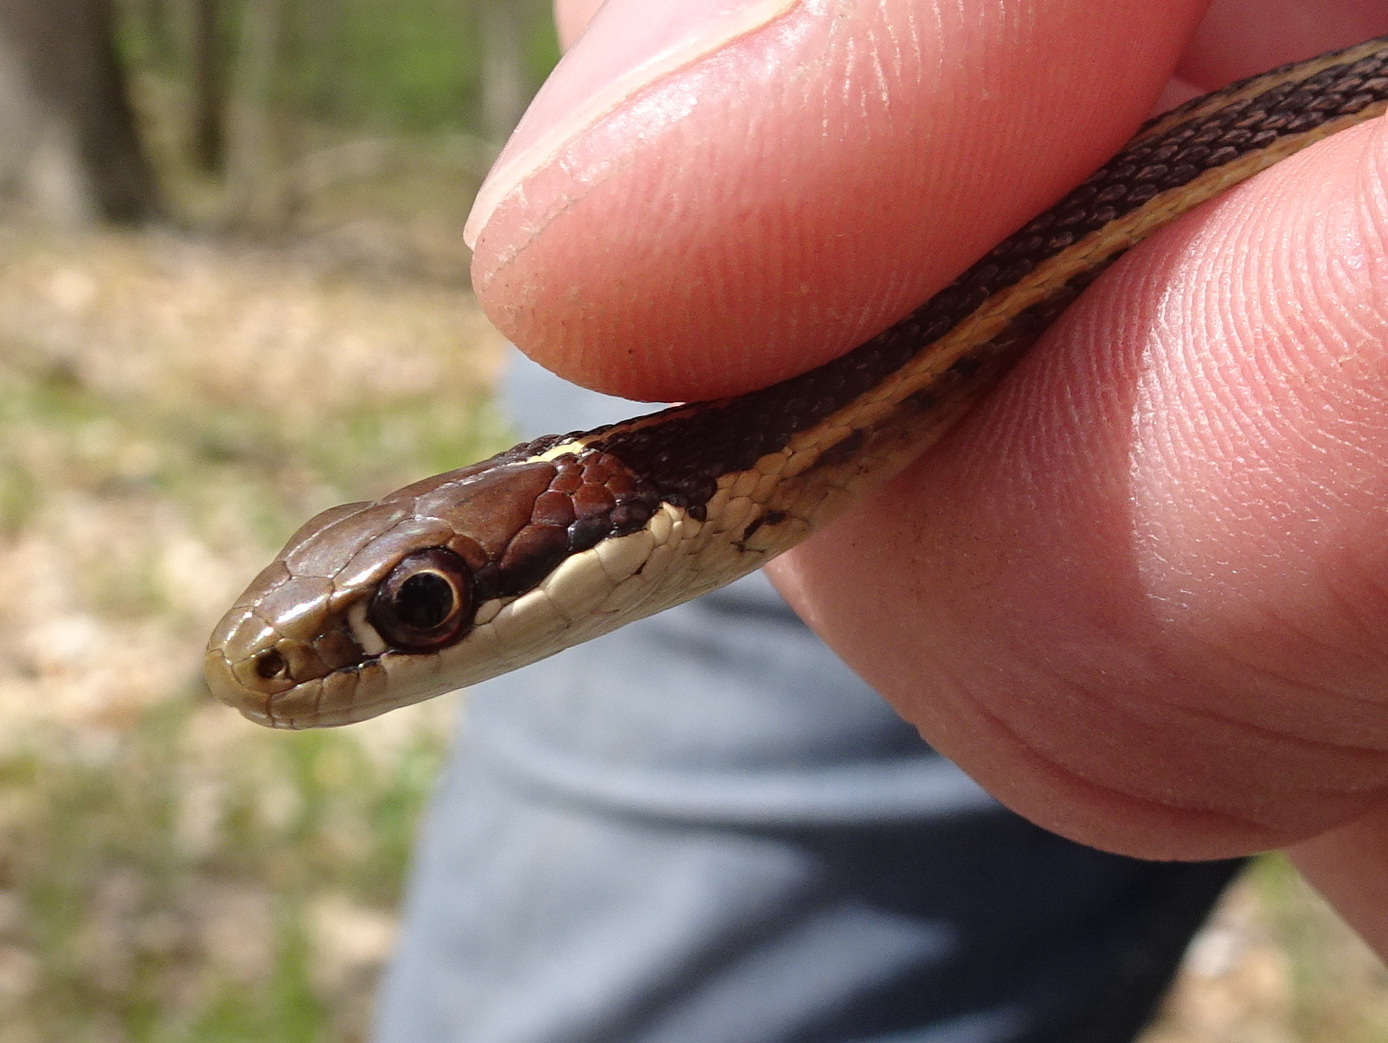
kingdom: Animalia
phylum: Chordata
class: Squamata
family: Colubridae
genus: Thamnophis
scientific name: Thamnophis saurita
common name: Eastern ribbonsnake
